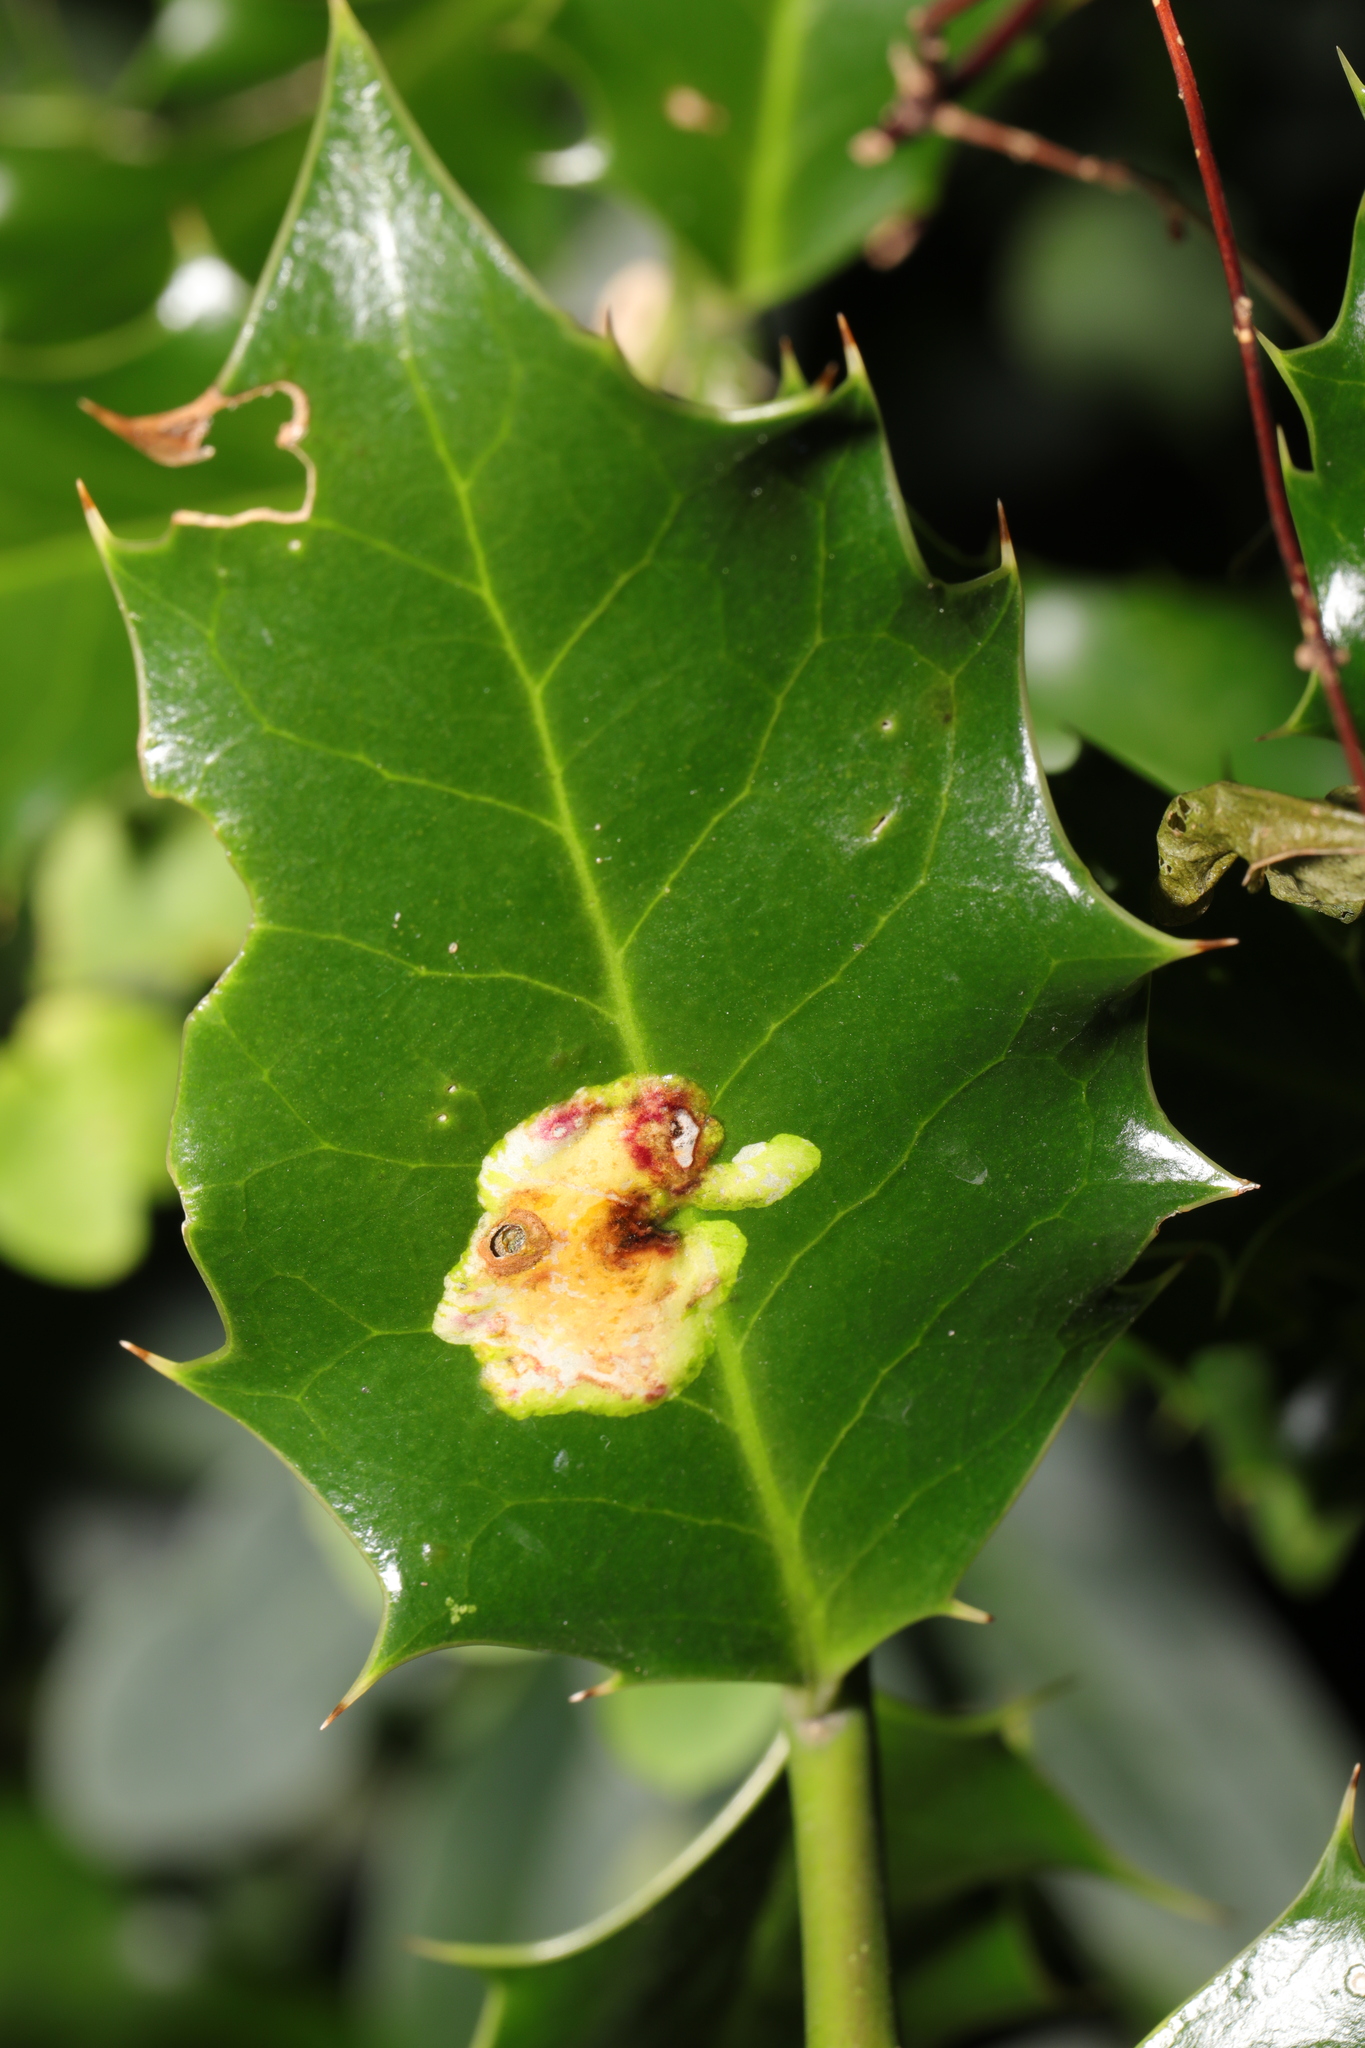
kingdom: Animalia
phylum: Arthropoda
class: Insecta
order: Diptera
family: Agromyzidae
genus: Phytomyza
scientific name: Phytomyza ilicis
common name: Holly leafminer
